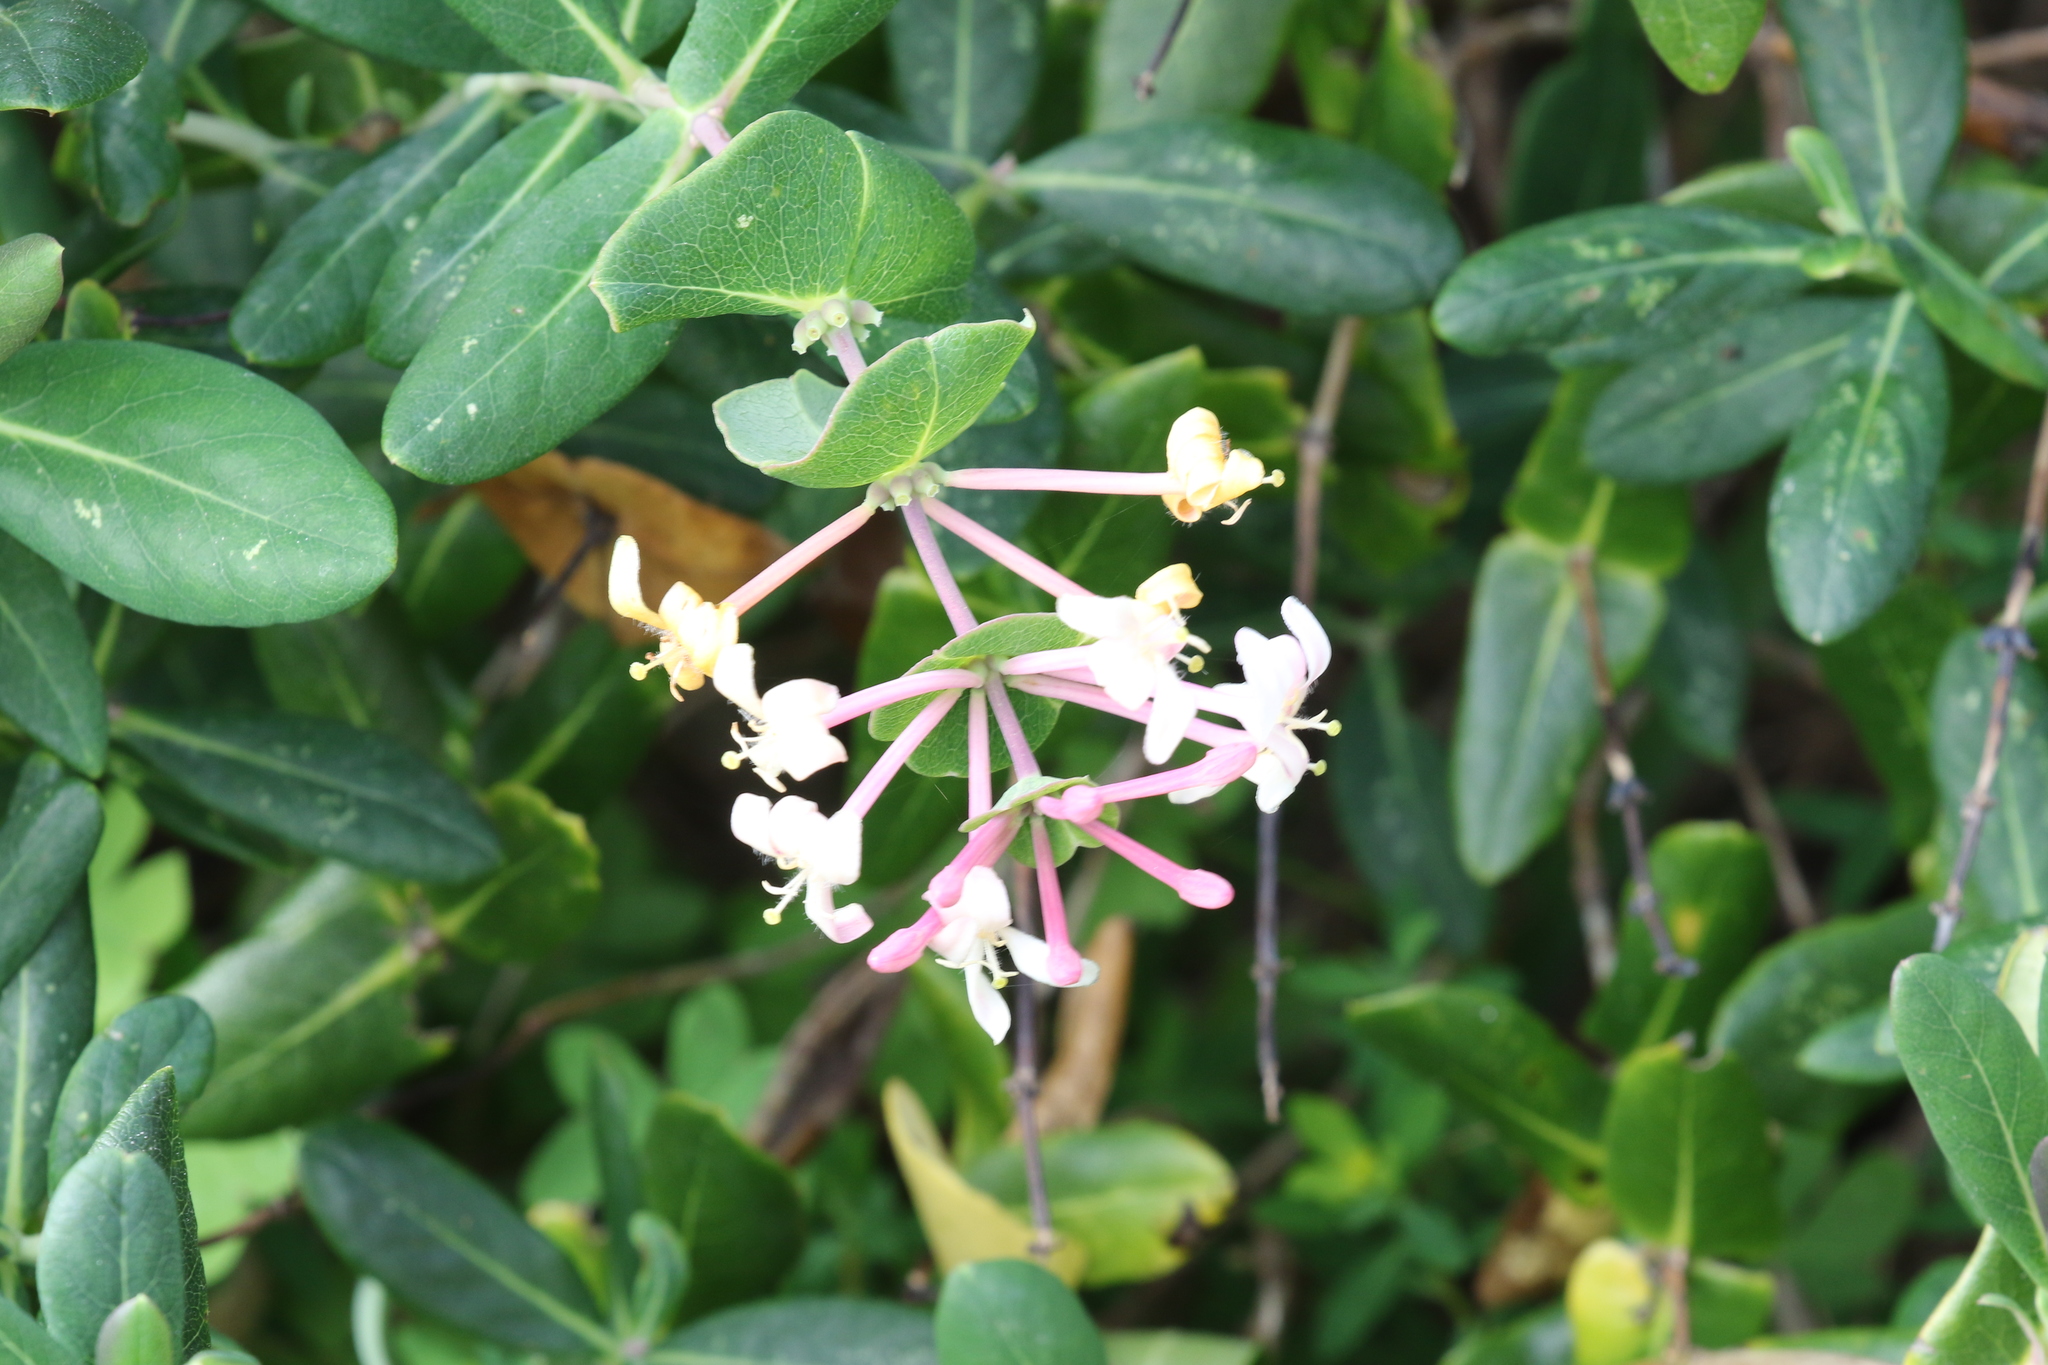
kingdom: Plantae
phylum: Tracheophyta
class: Magnoliopsida
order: Dipsacales
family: Caprifoliaceae
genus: Lonicera
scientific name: Lonicera implexa
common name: Minorca honeysuckle
